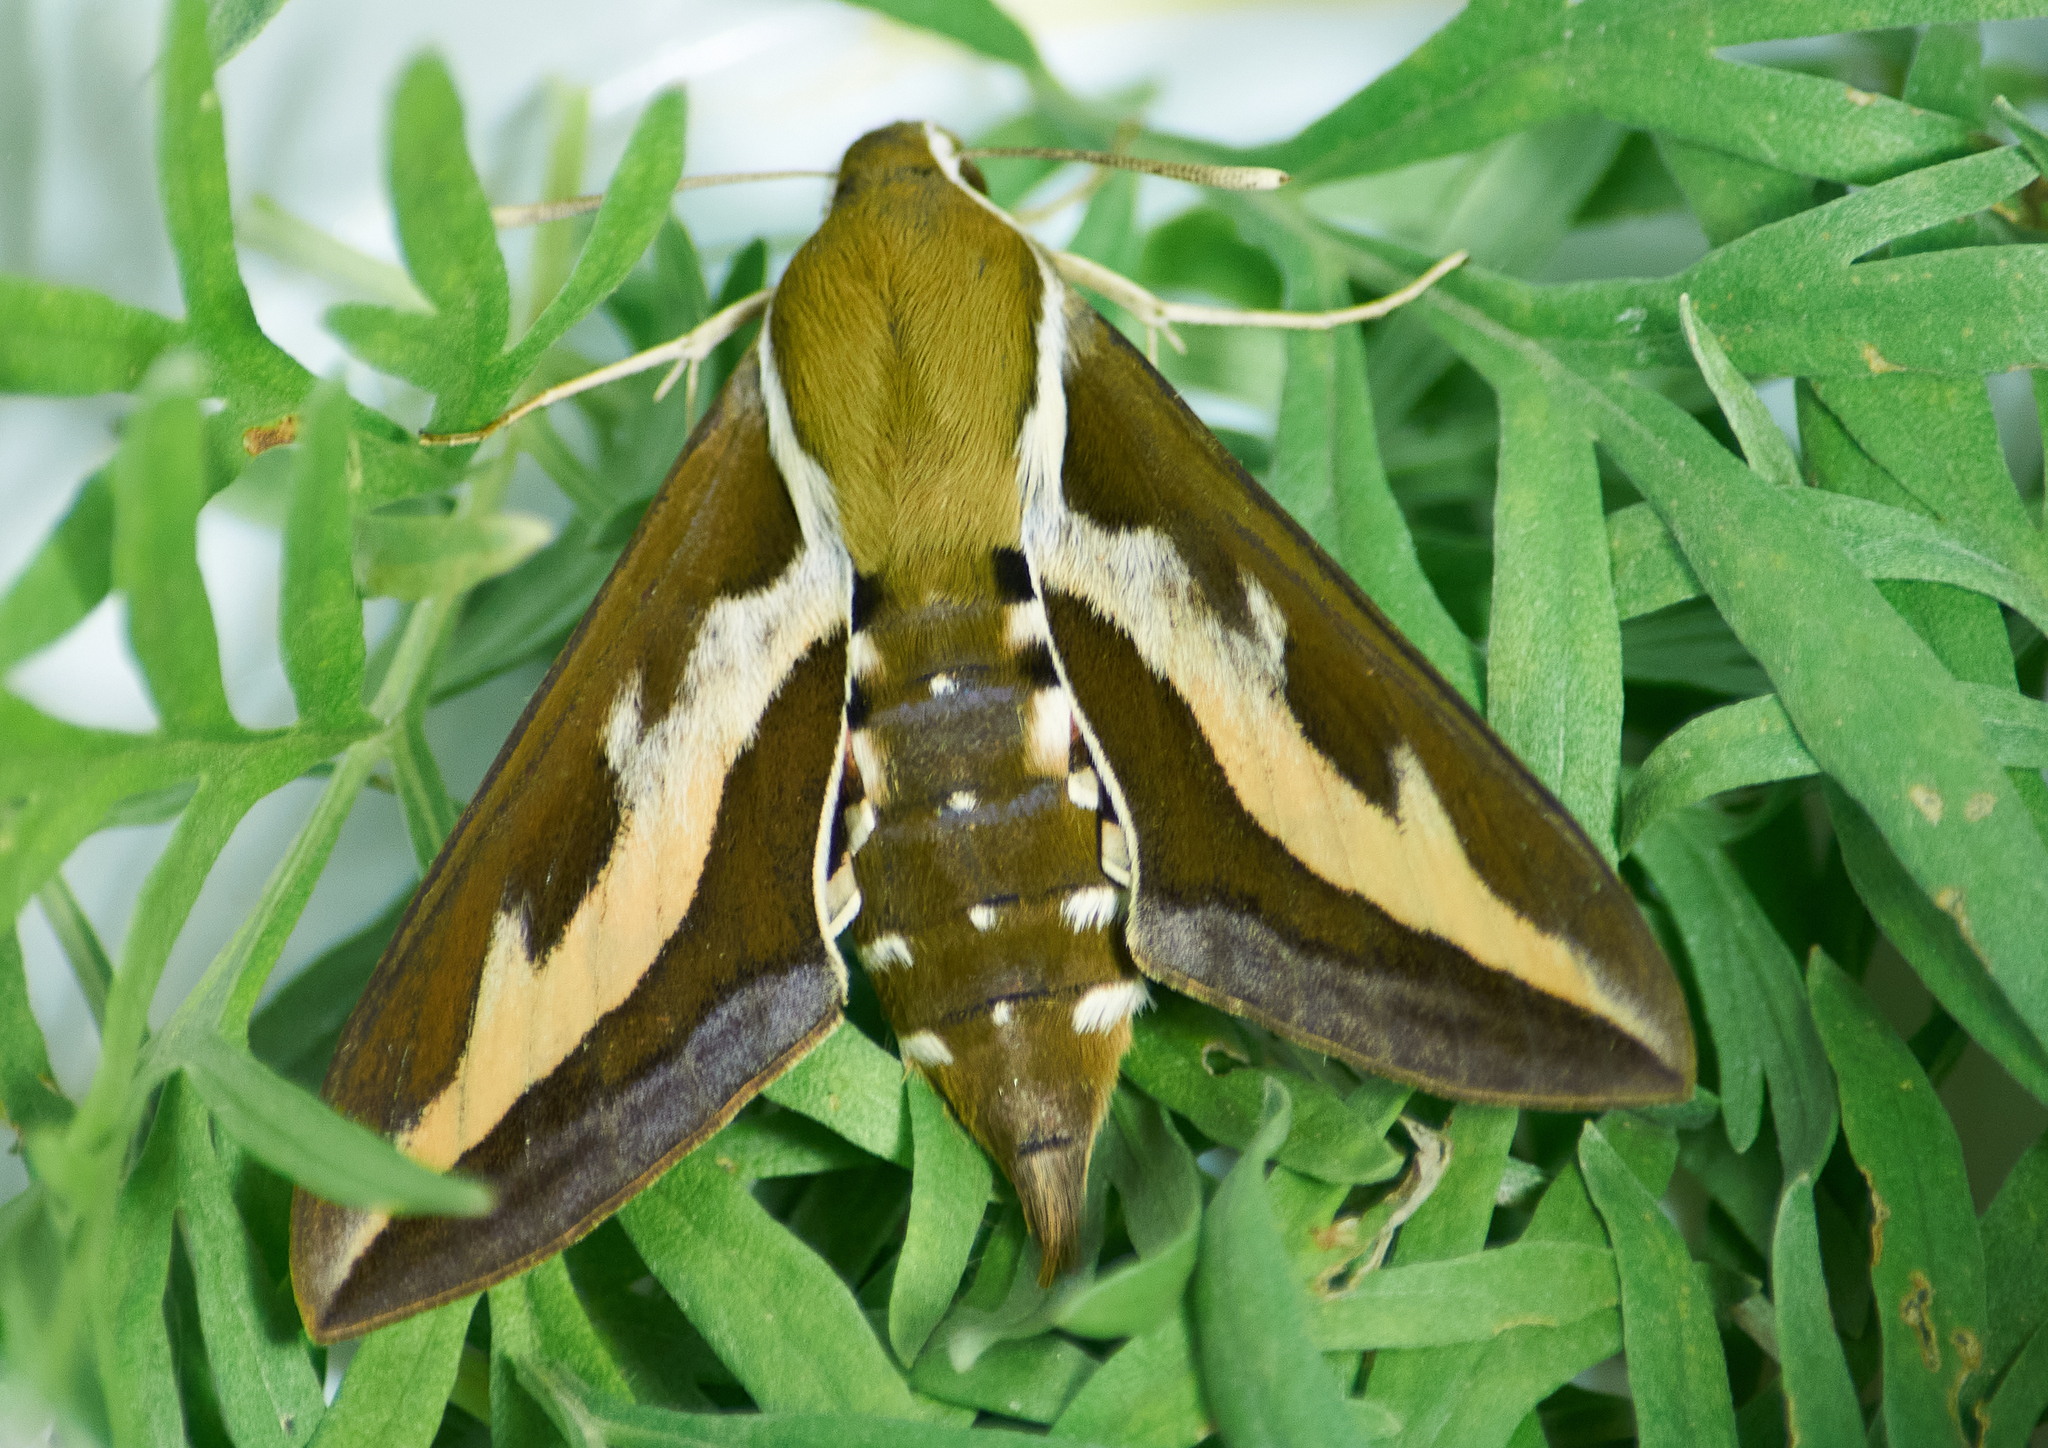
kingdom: Animalia
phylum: Arthropoda
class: Insecta
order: Lepidoptera
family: Sphingidae
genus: Hyles
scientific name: Hyles gallii
